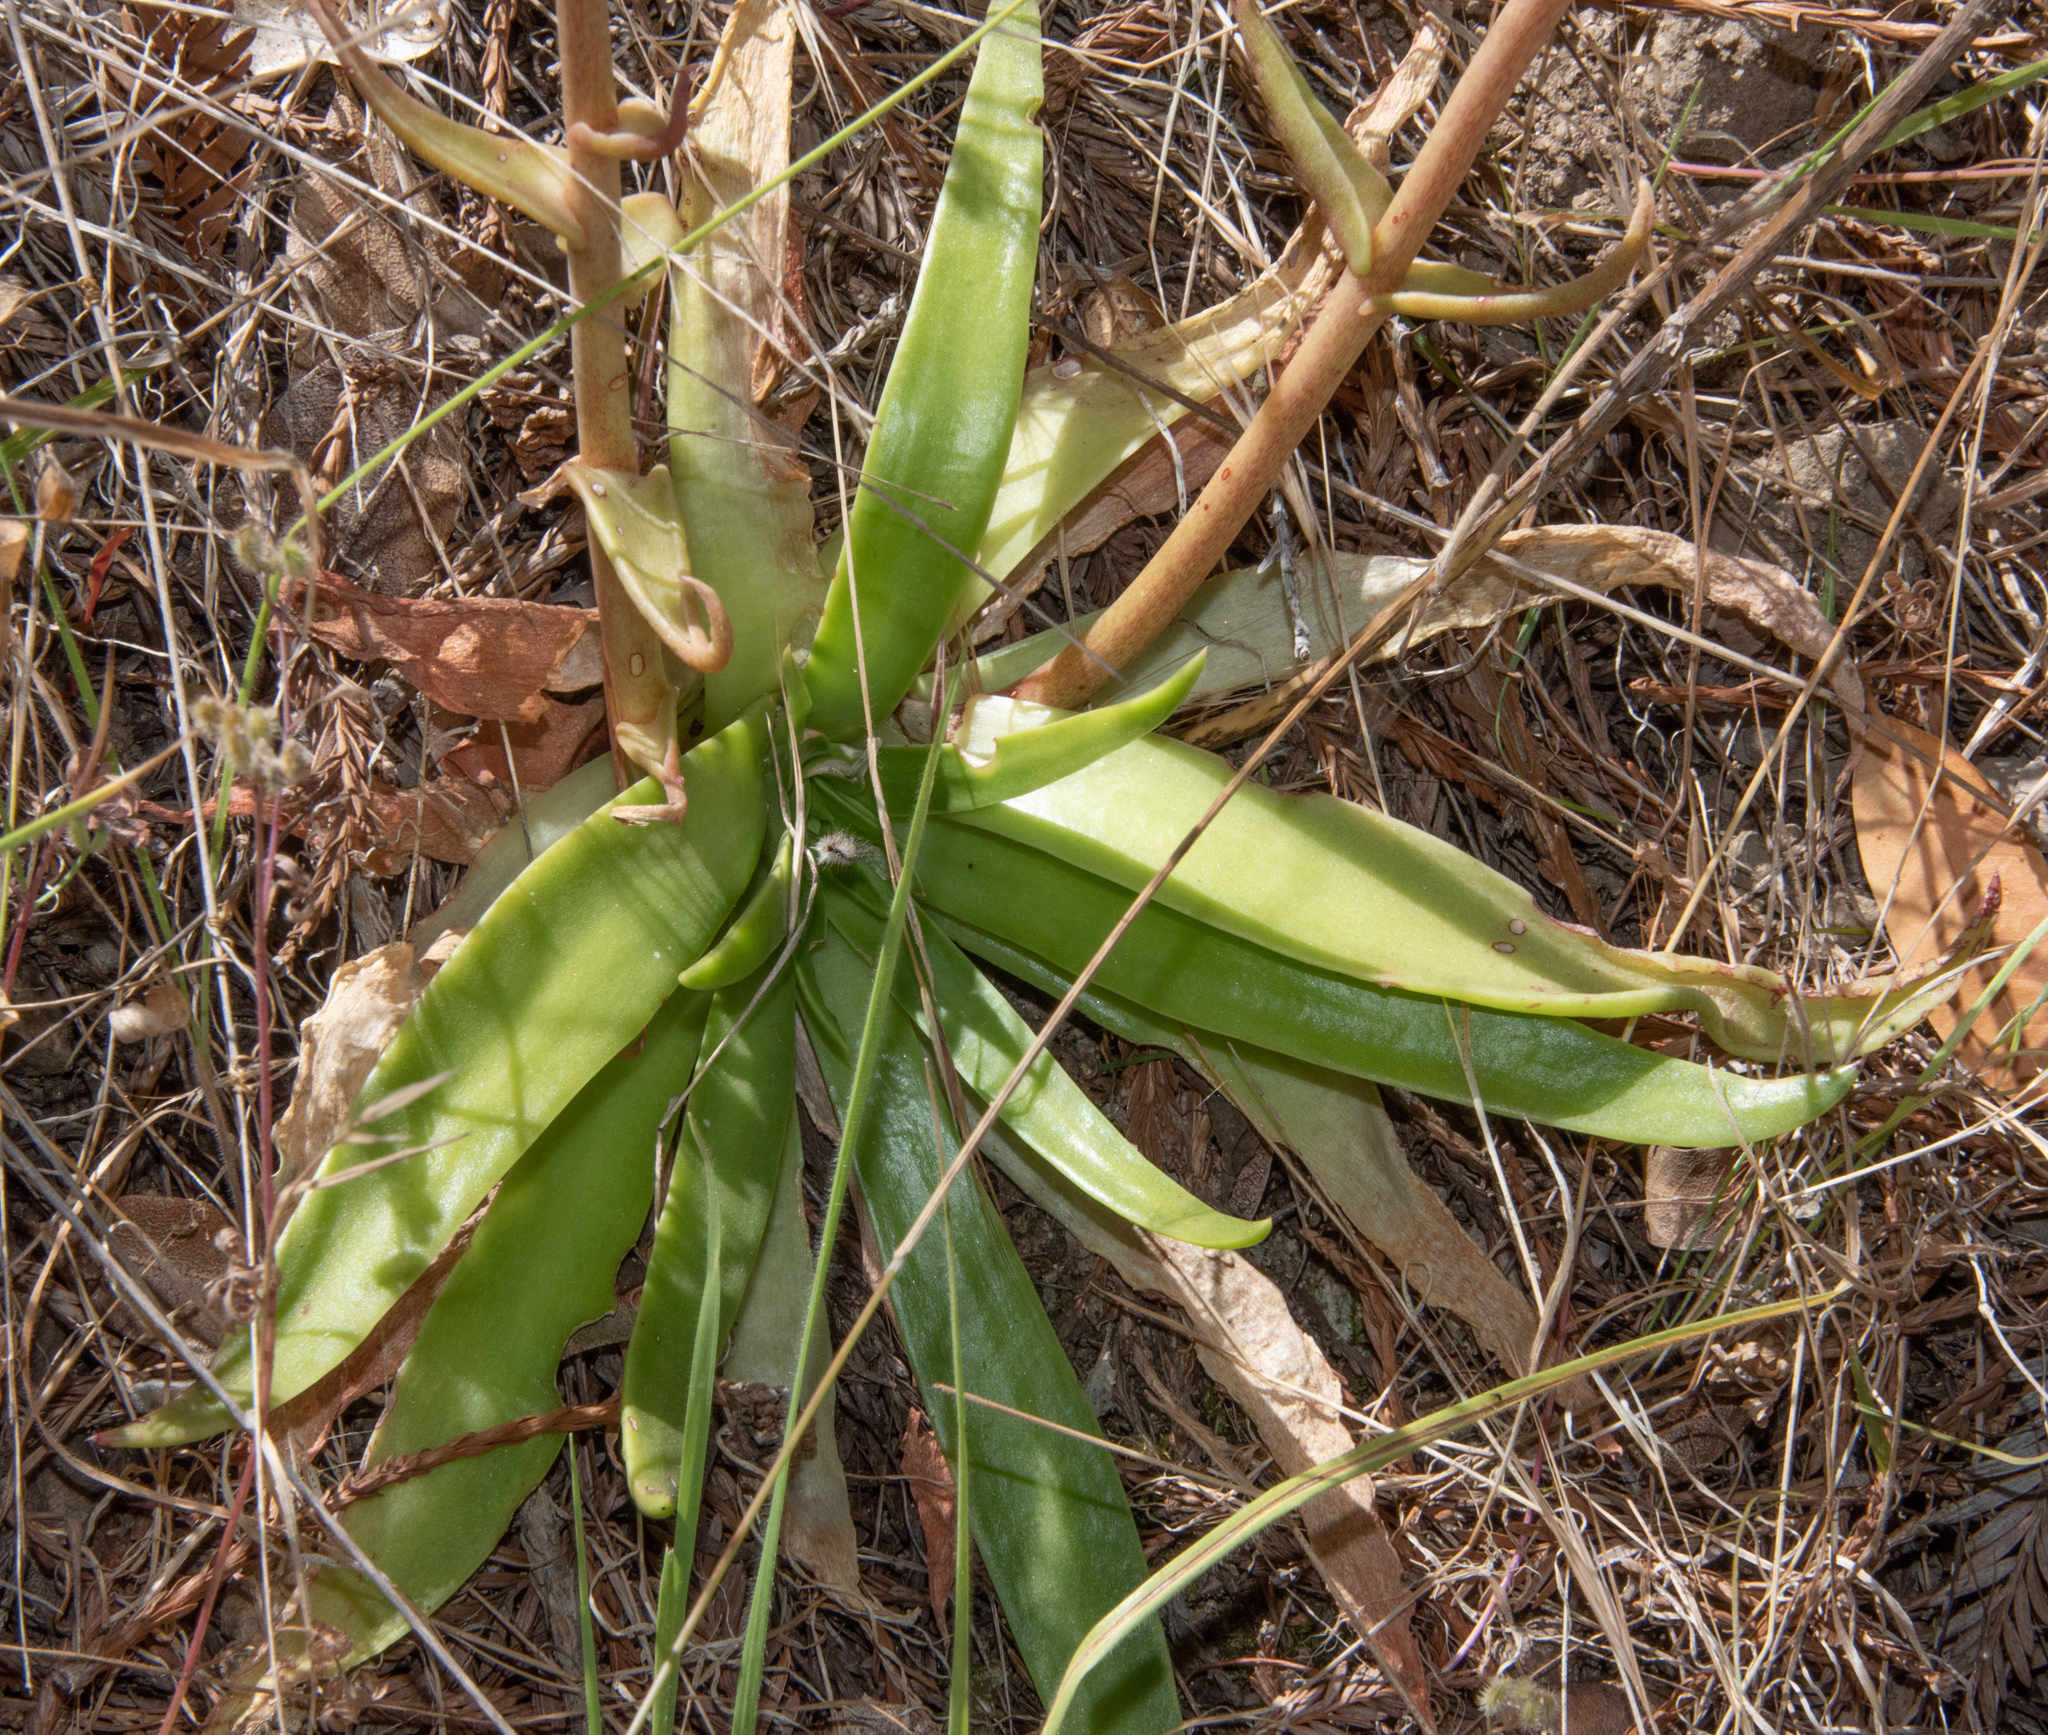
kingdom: Plantae
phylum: Tracheophyta
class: Magnoliopsida
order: Saxifragales
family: Crassulaceae
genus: Dudleya
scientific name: Dudleya lanceolata
